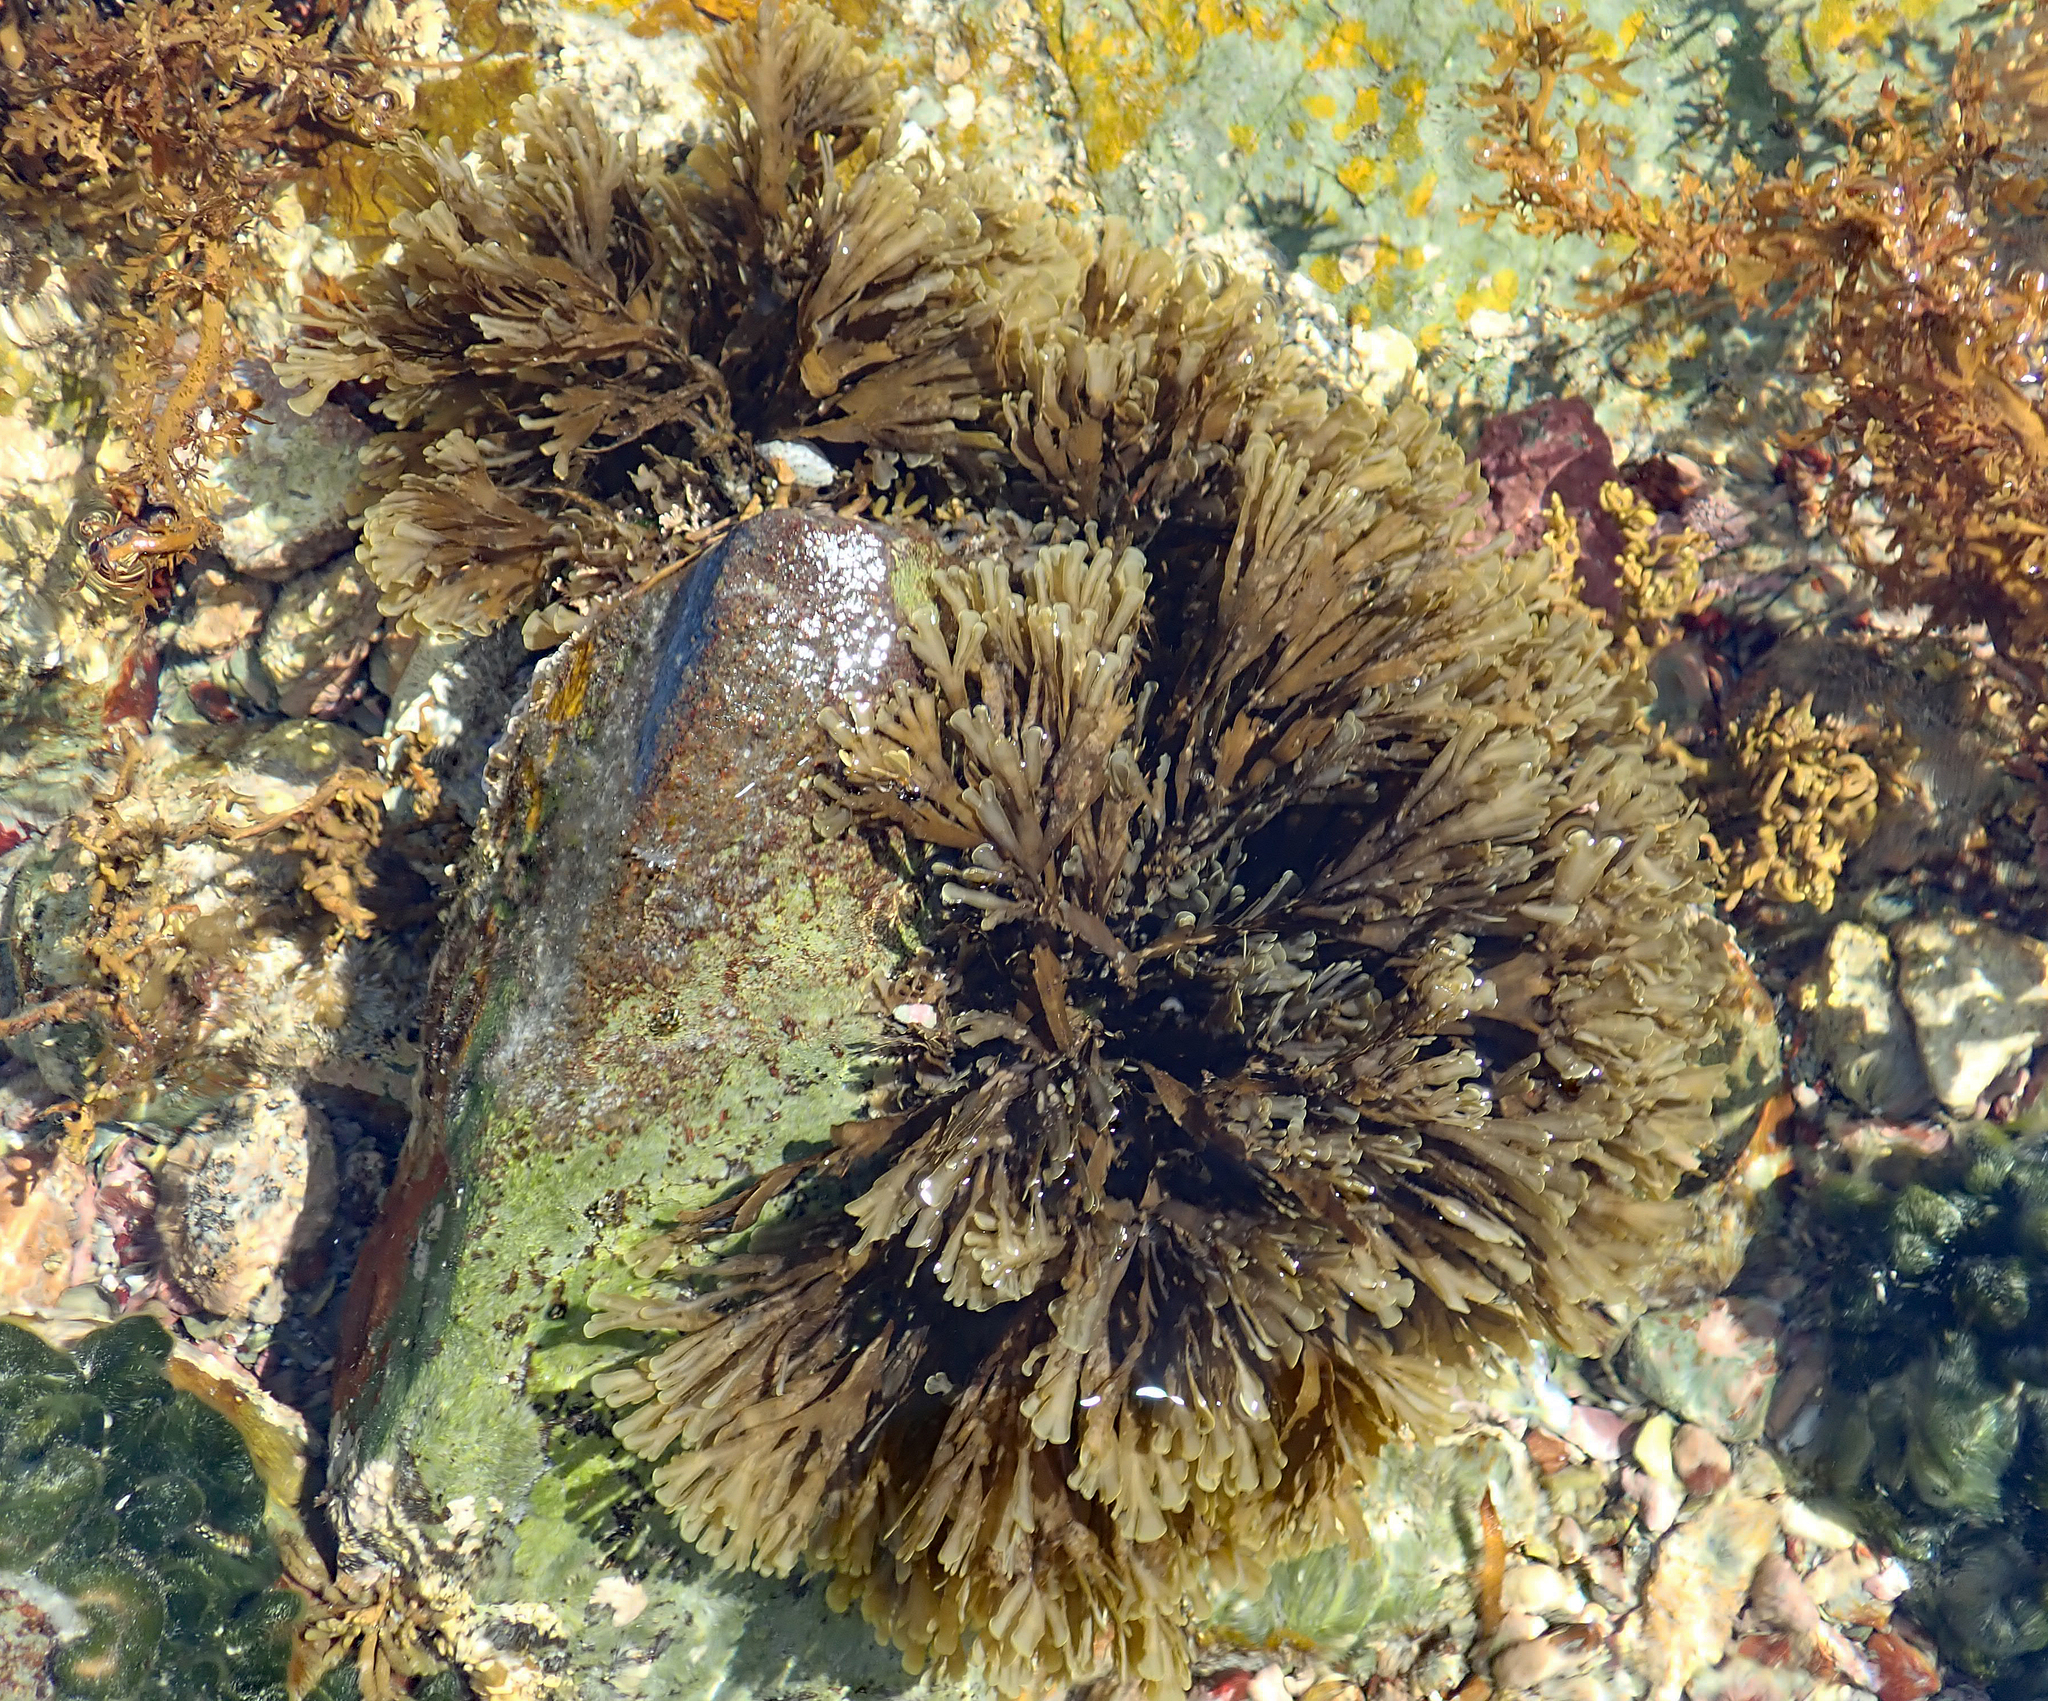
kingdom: Chromista
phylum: Ochrophyta
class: Phaeophyceae
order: Dictyotales
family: Dictyotaceae
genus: Zonaria
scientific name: Zonaria turneriana
